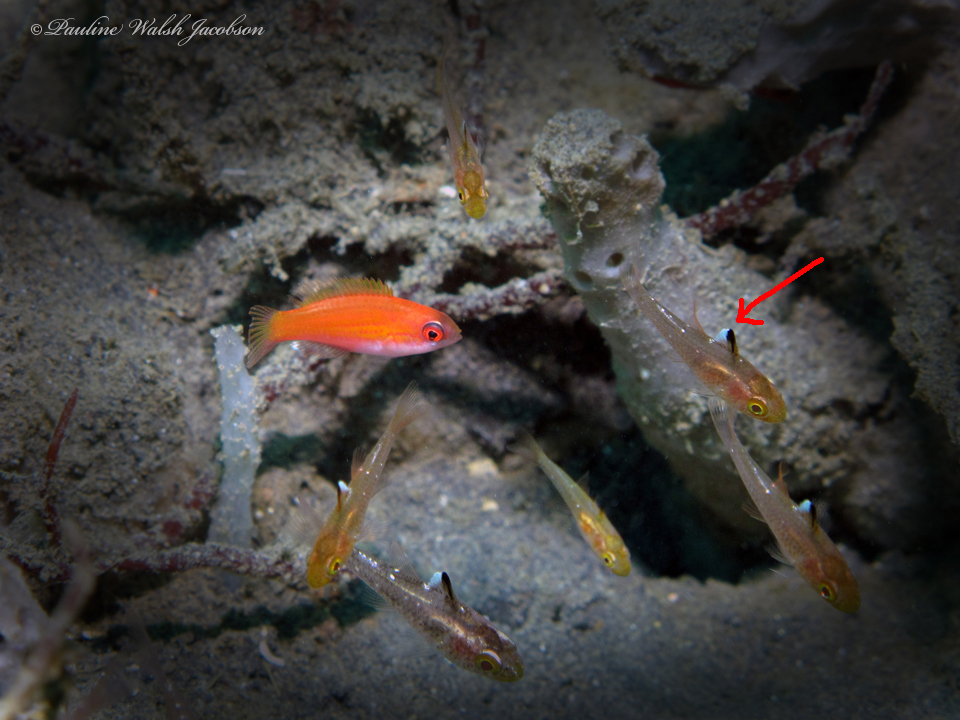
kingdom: Animalia
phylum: Chordata
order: Perciformes
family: Apogonidae
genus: Ostorhinchus
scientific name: Ostorhinchus hoevenii
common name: Flag-fin cardinal
